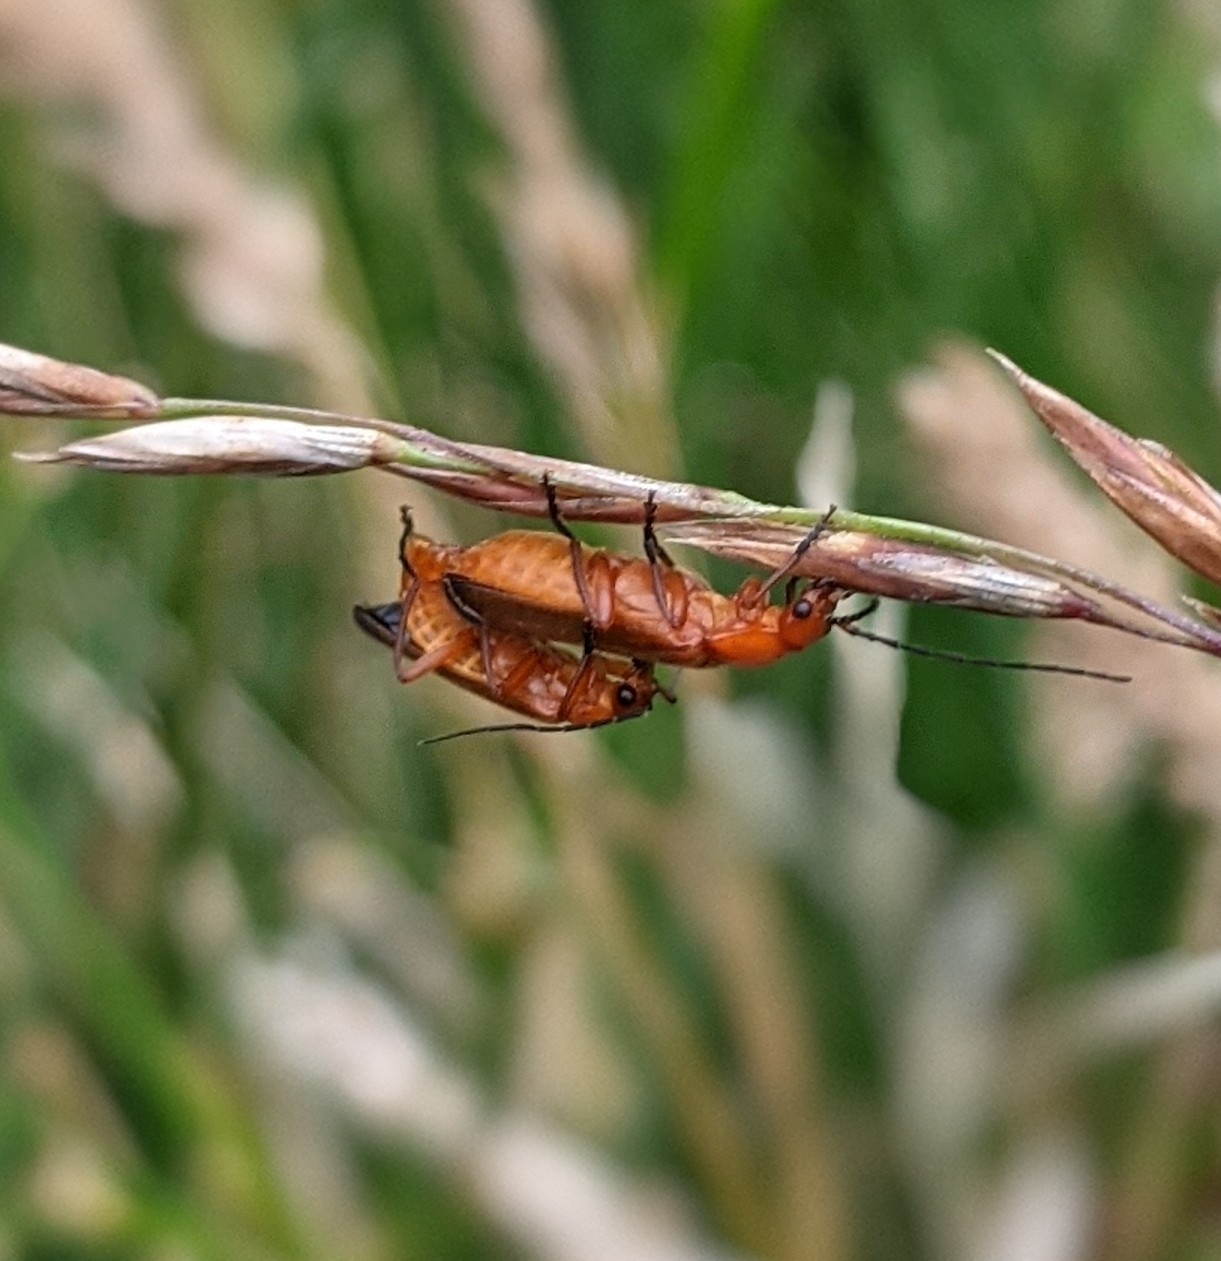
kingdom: Animalia
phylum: Arthropoda
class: Insecta
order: Coleoptera
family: Cantharidae
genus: Rhagonycha
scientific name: Rhagonycha fulva
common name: Common red soldier beetle
